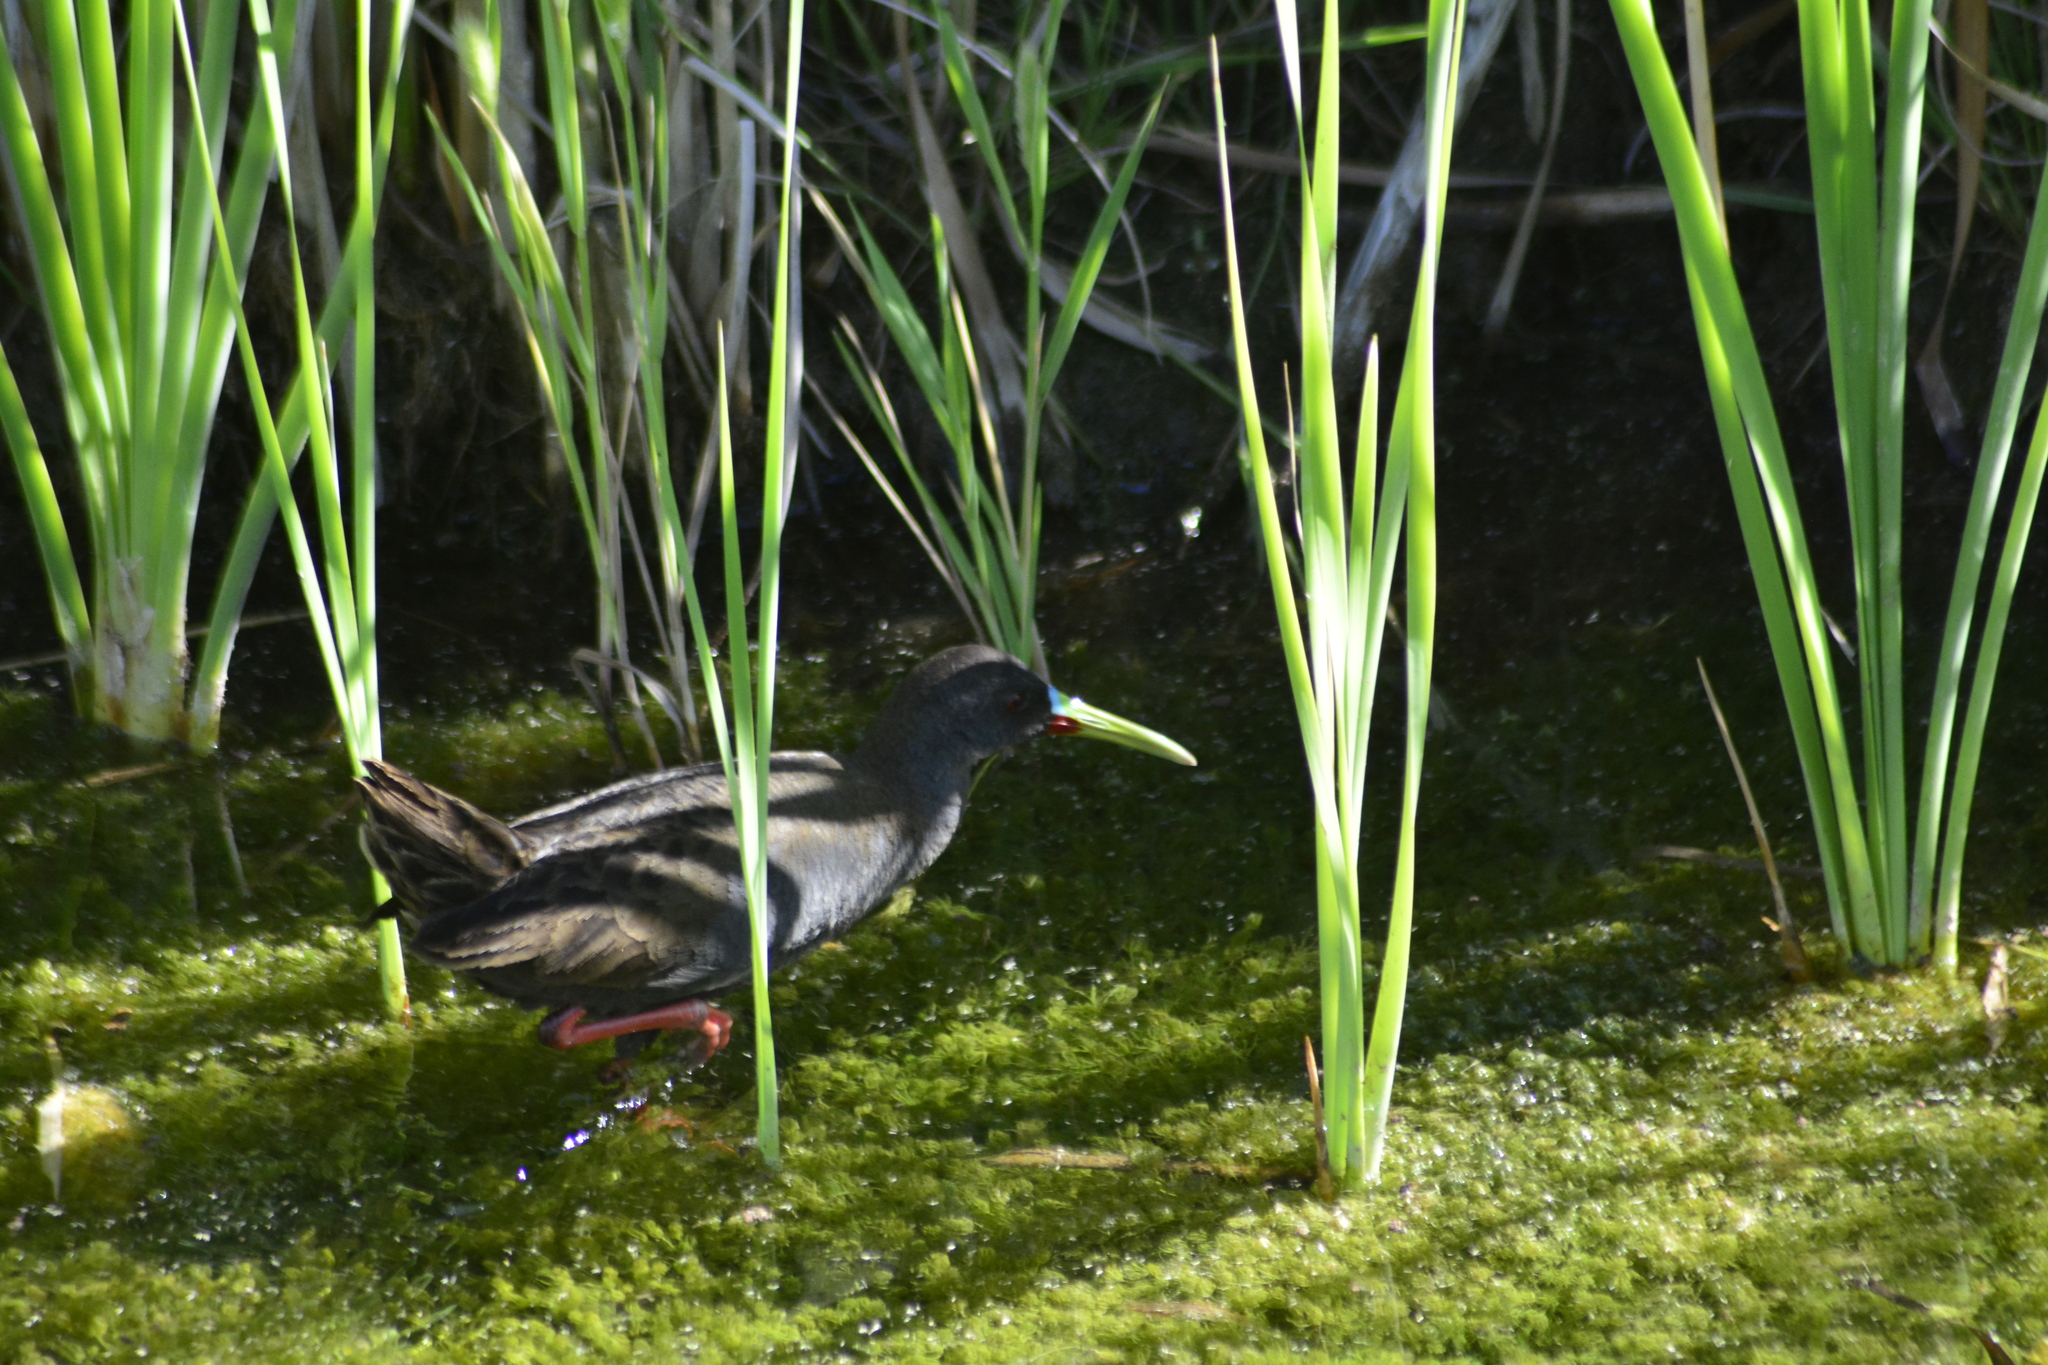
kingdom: Animalia
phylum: Chordata
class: Aves
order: Gruiformes
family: Rallidae
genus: Pardirallus
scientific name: Pardirallus sanguinolentus
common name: Plumbeous rail
